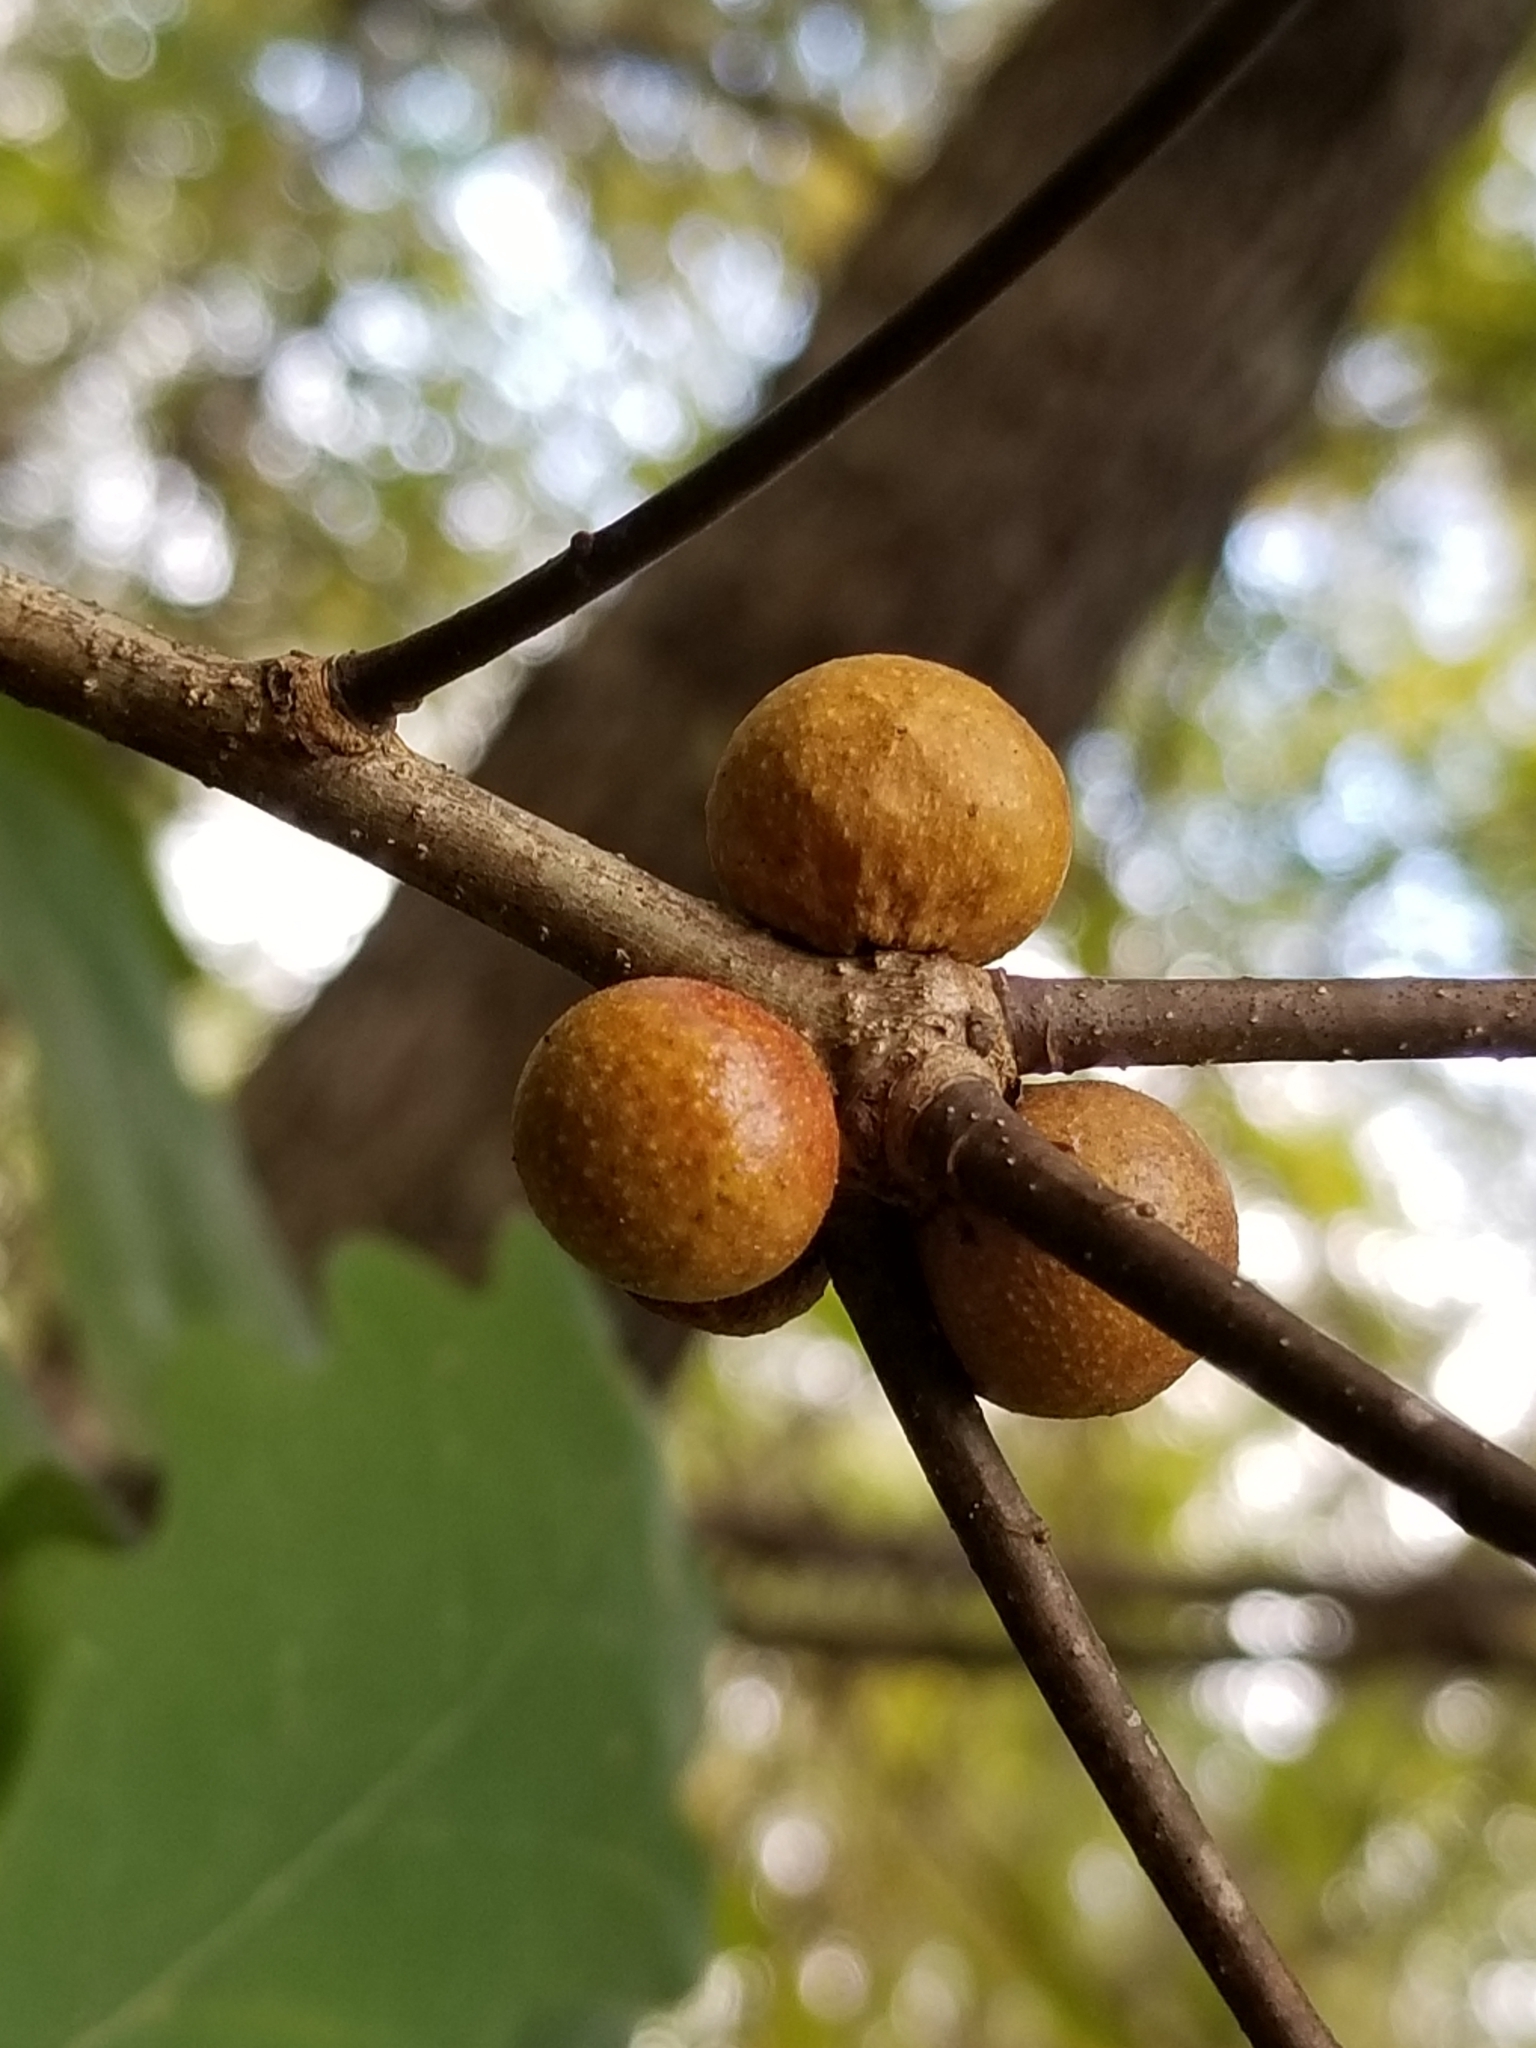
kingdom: Animalia
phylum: Arthropoda
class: Insecta
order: Hymenoptera
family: Cynipidae
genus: Disholcaspis
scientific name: Disholcaspis quercusglobulus
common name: Round bullet gall wasp
